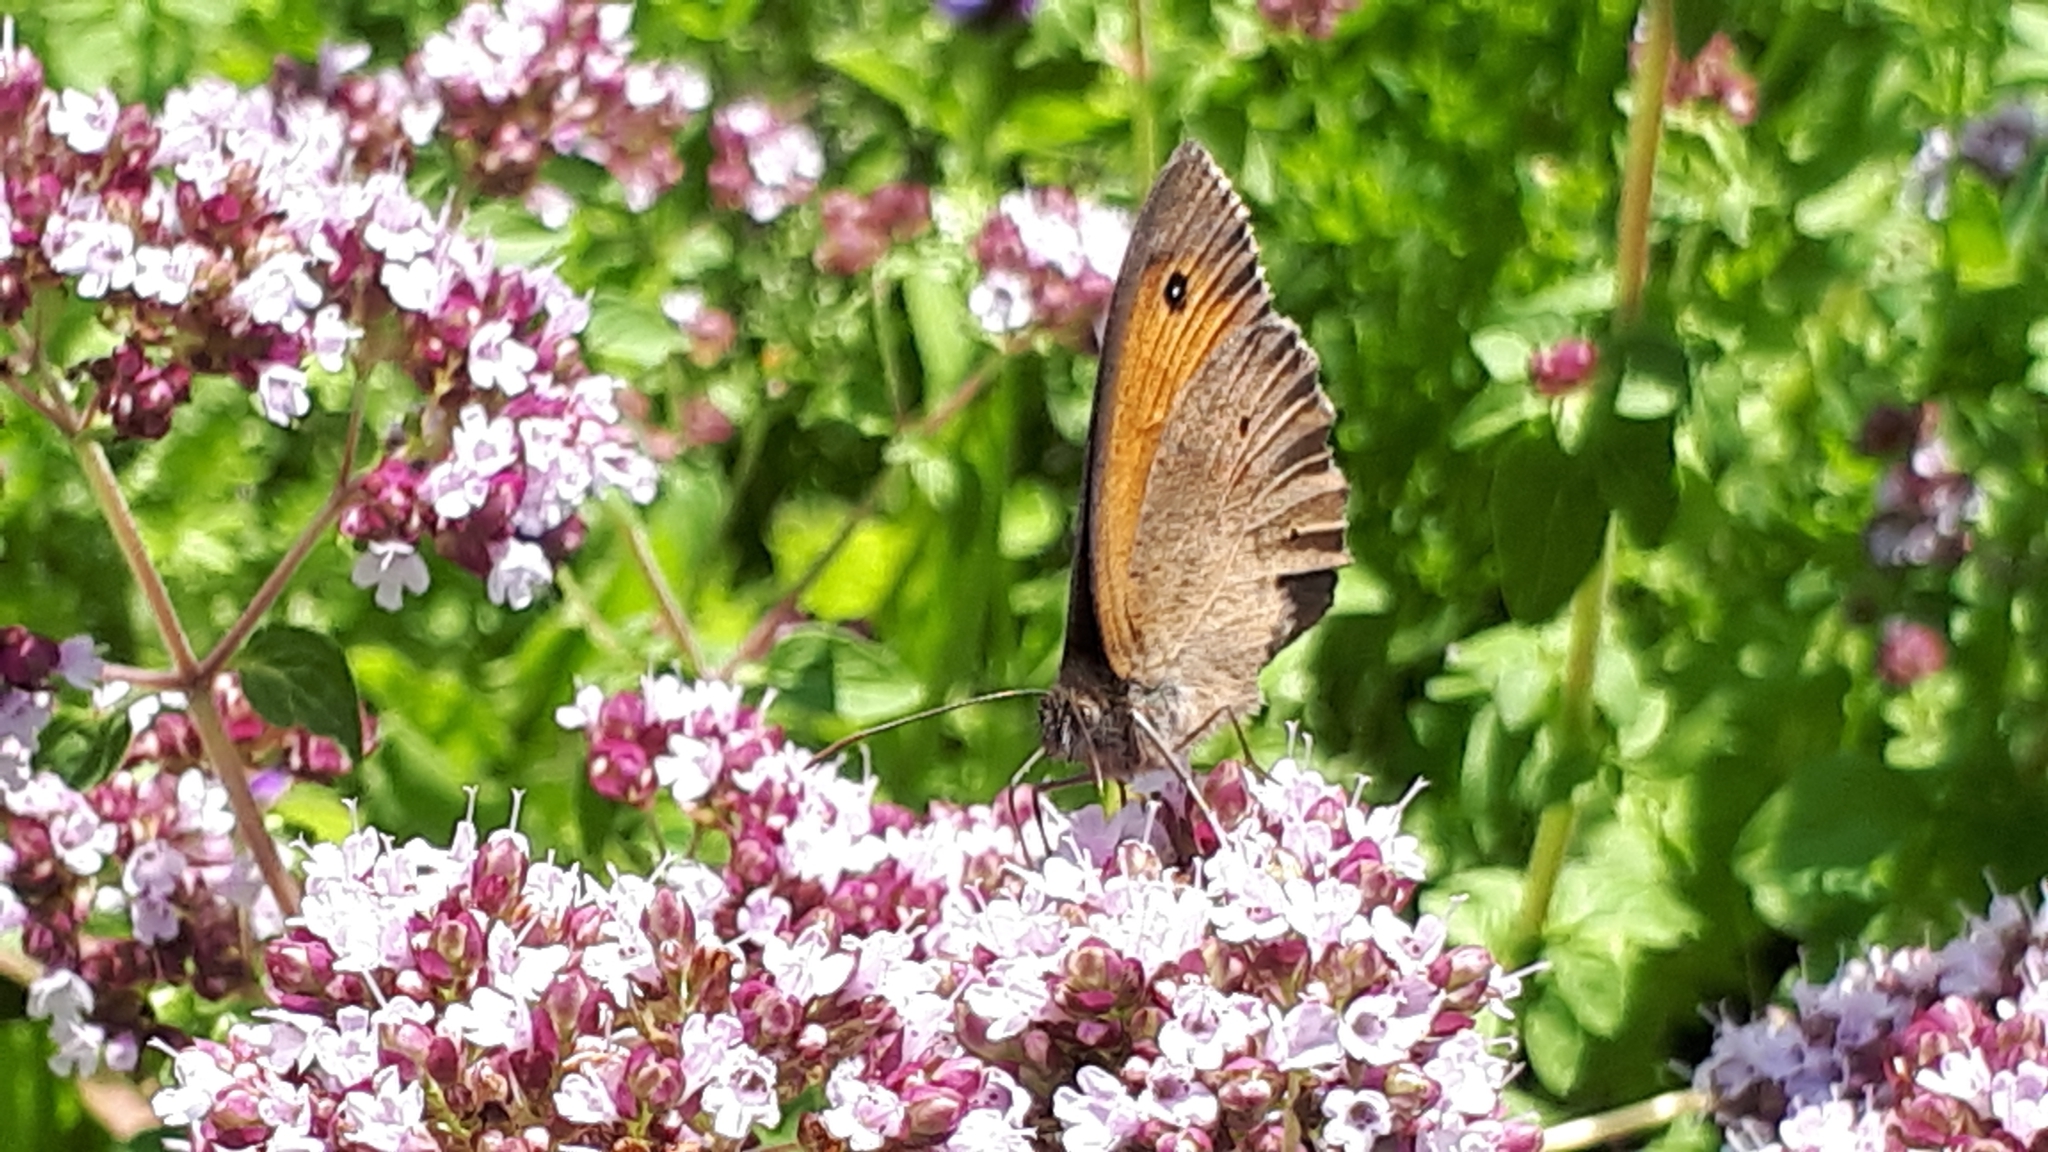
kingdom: Animalia
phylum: Arthropoda
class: Insecta
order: Lepidoptera
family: Nymphalidae
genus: Maniola
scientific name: Maniola jurtina
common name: Meadow brown
